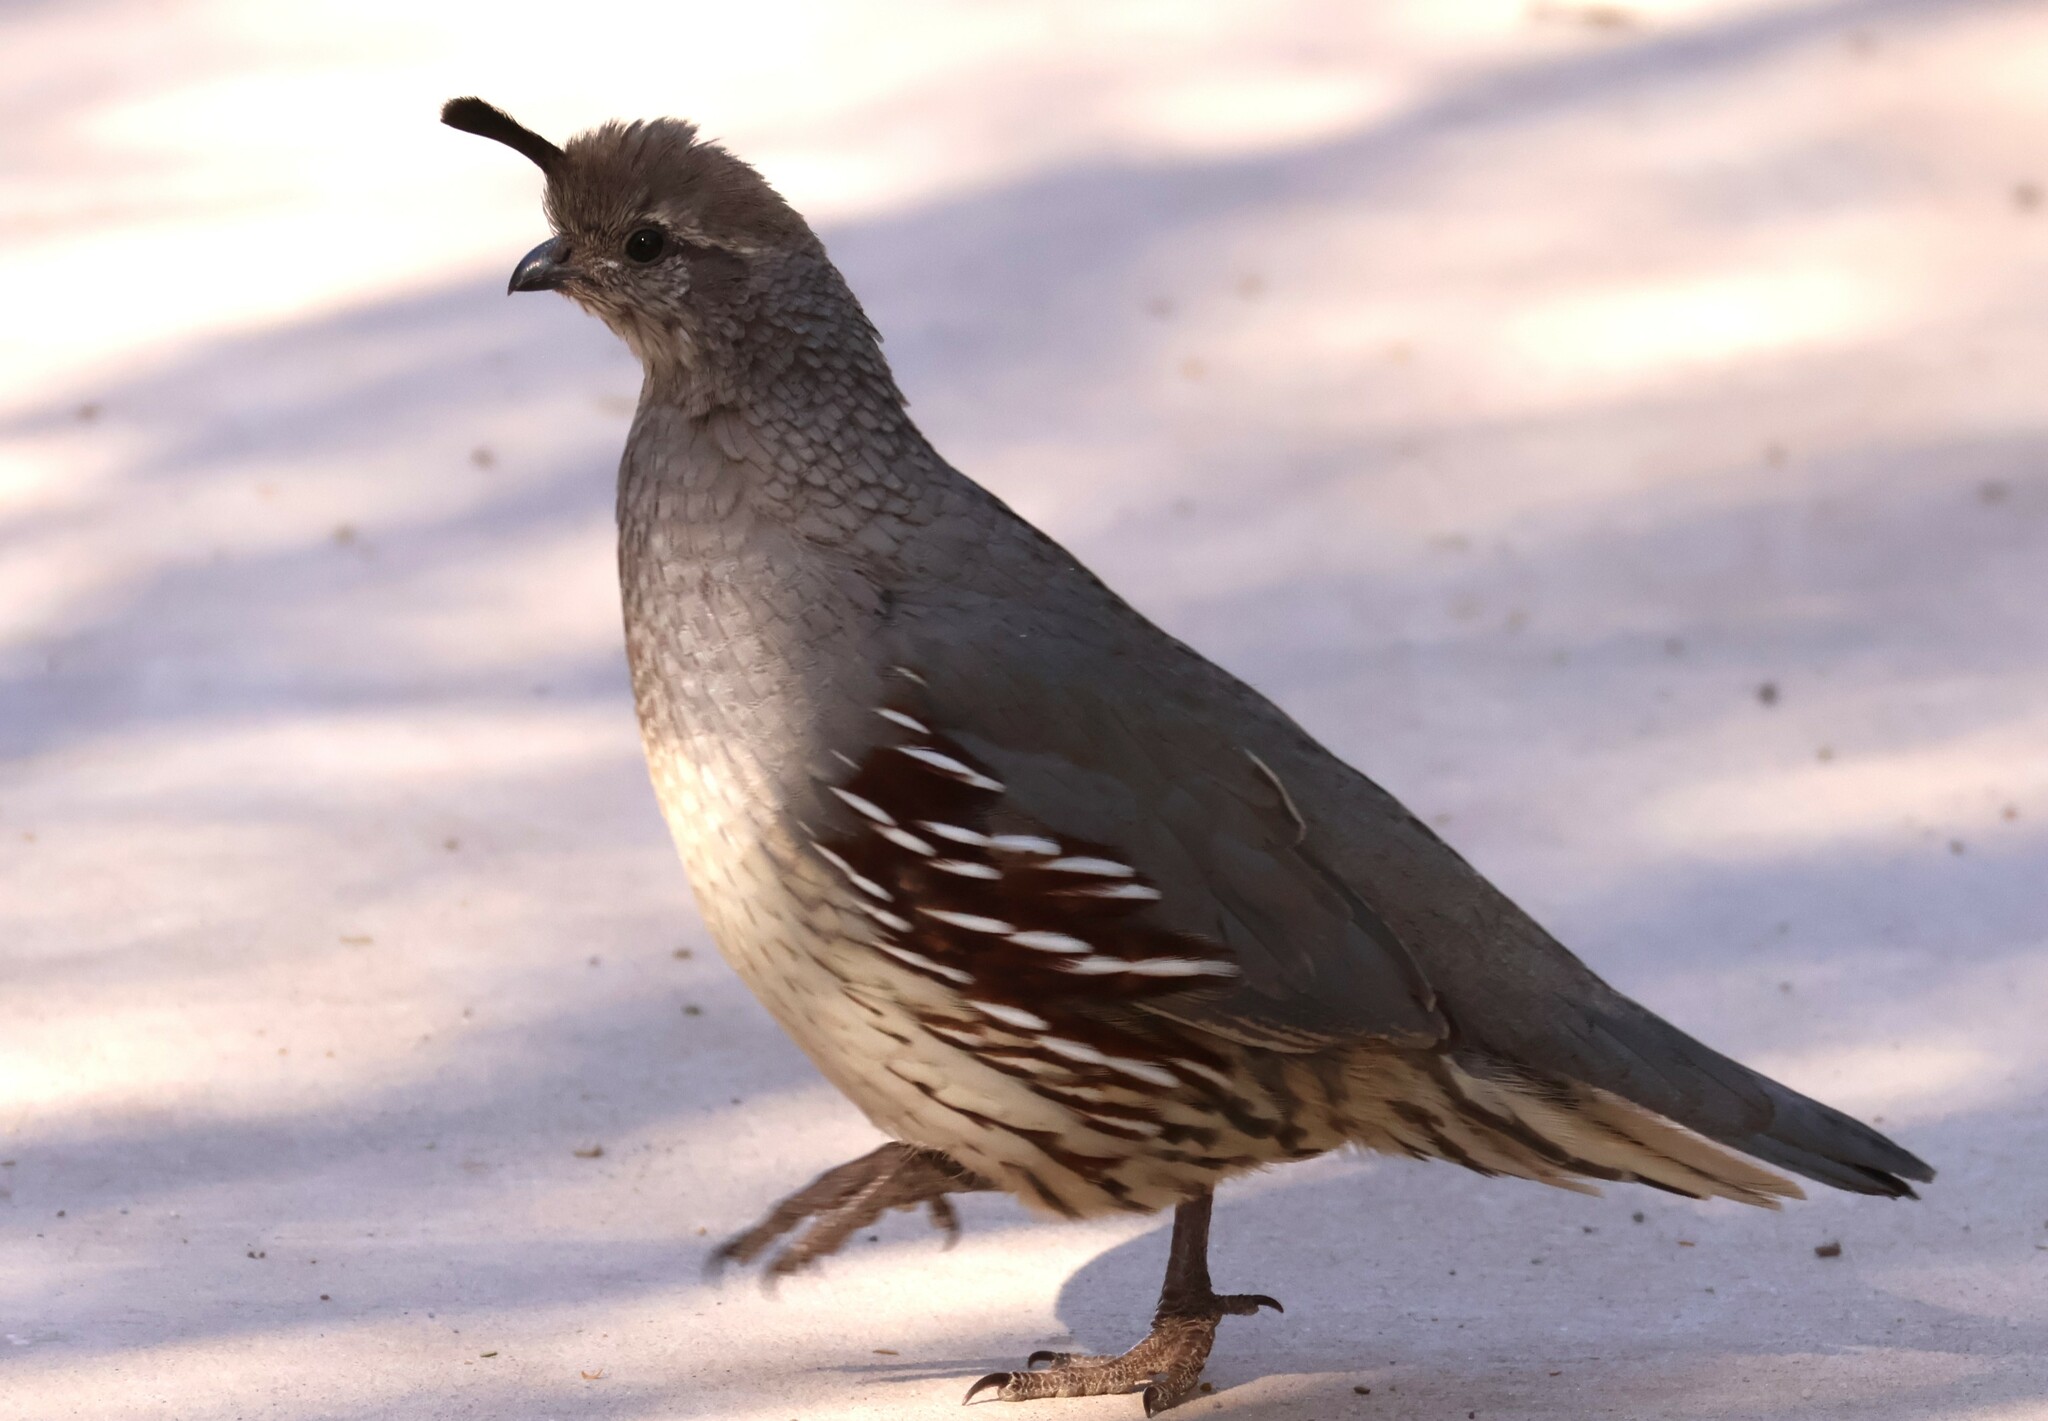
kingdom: Animalia
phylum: Chordata
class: Aves
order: Galliformes
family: Odontophoridae
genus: Callipepla
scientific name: Callipepla gambelii
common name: Gambel's quail
